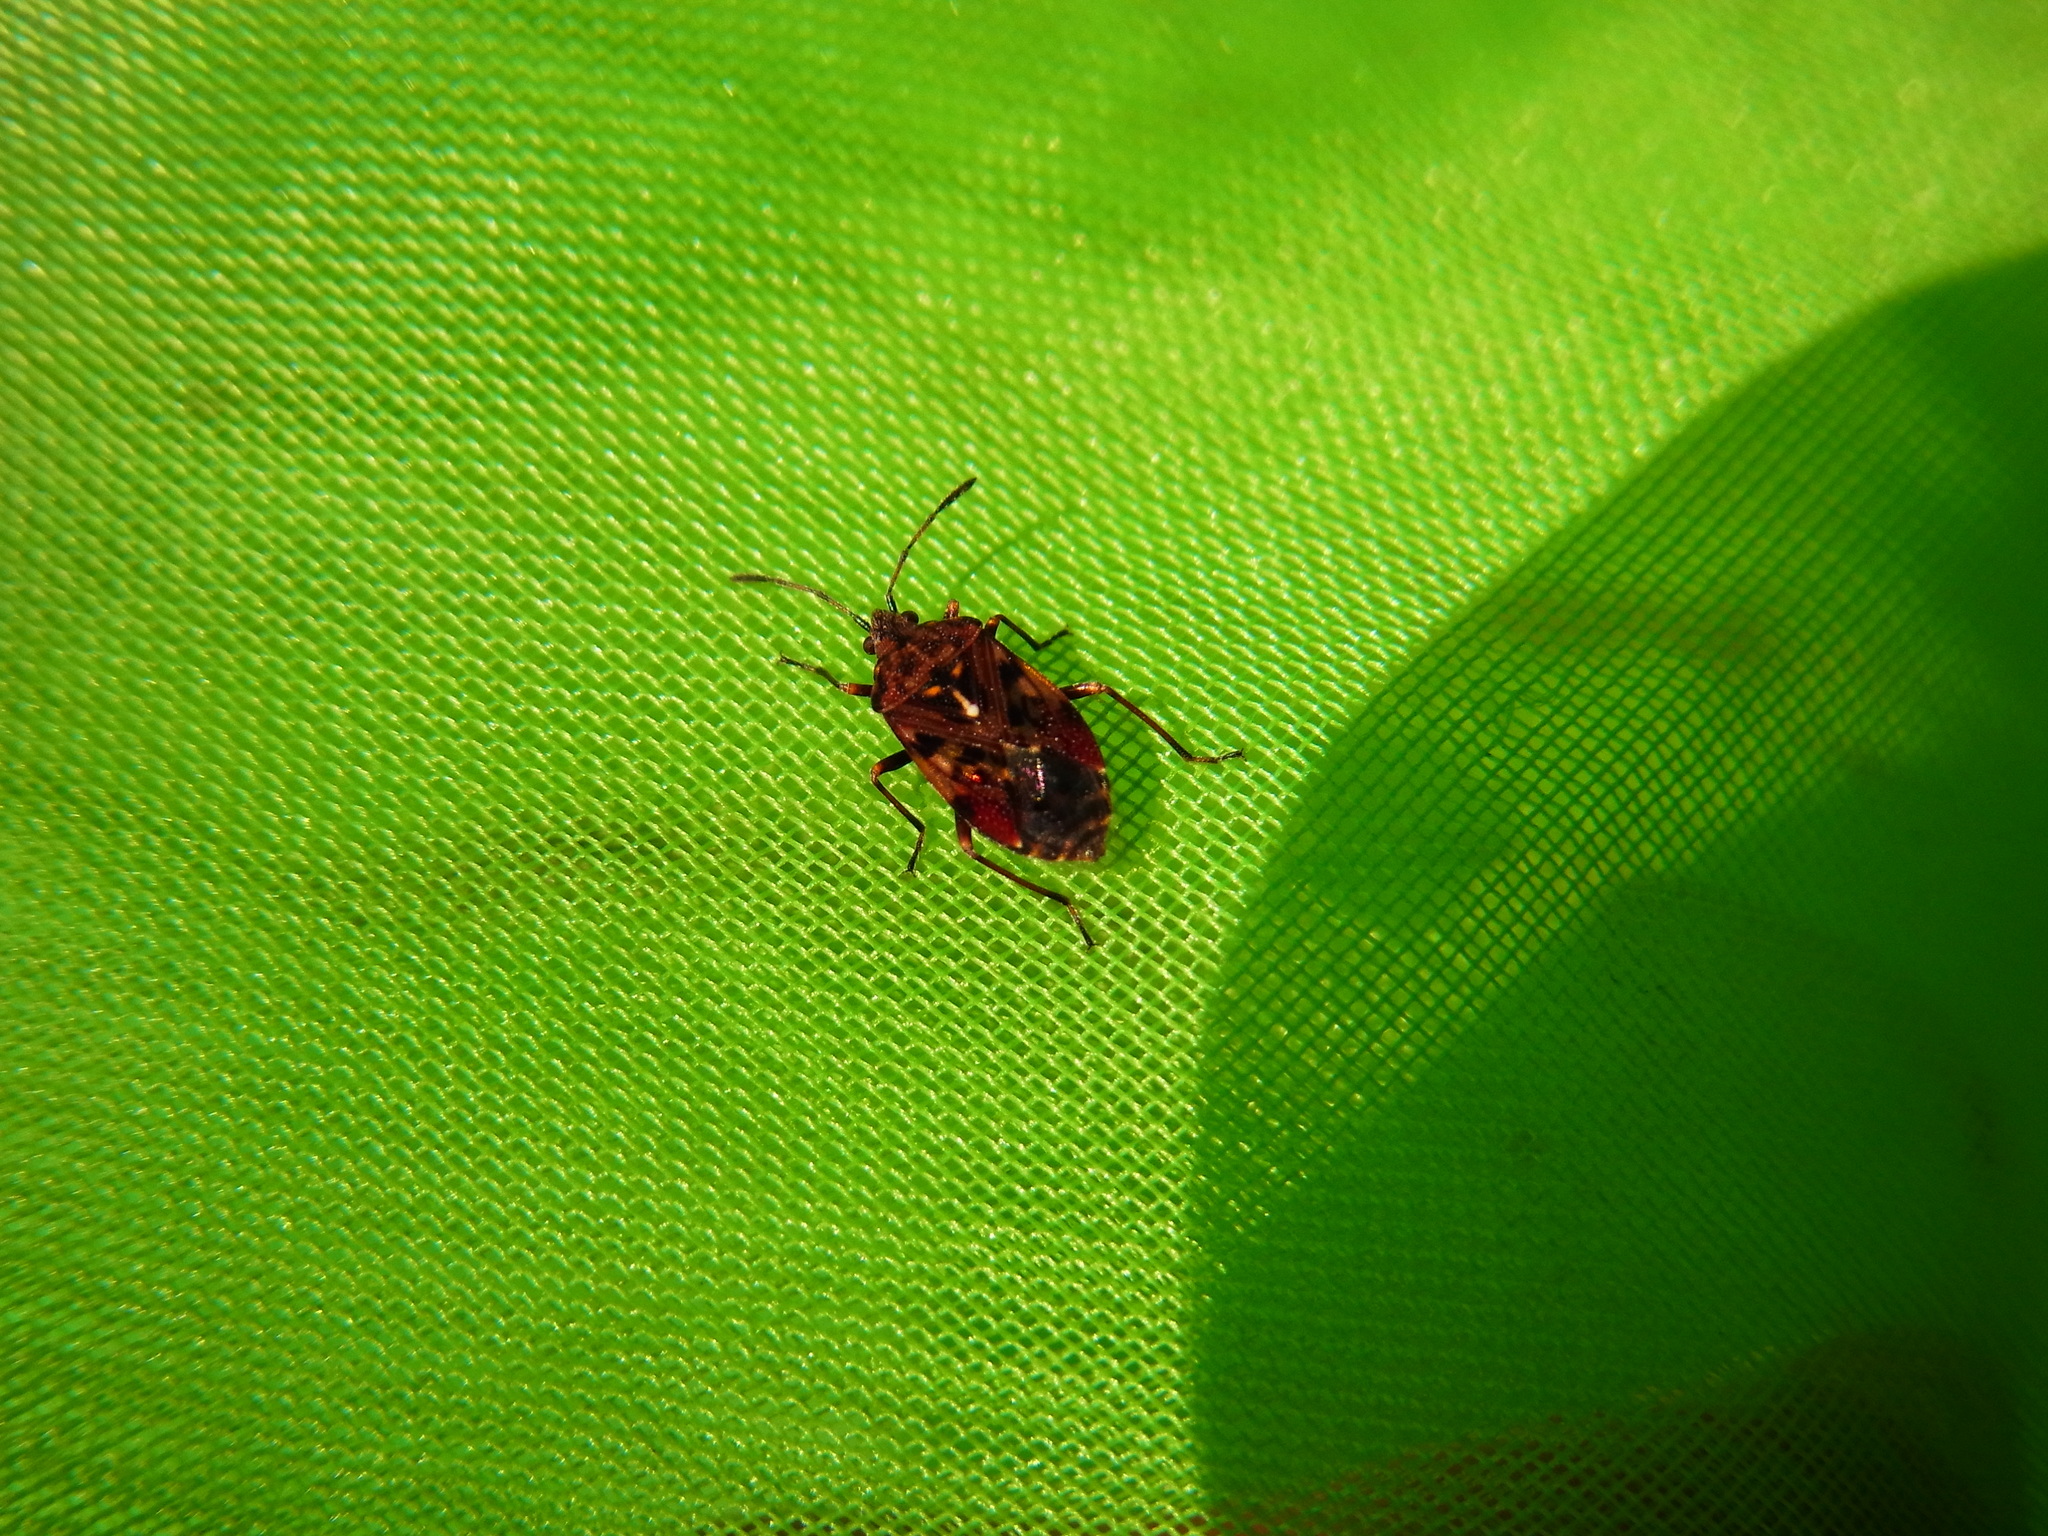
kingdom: Animalia
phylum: Arthropoda
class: Insecta
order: Hemiptera
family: Lygaeidae
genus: Pylorgus
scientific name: Pylorgus colon
